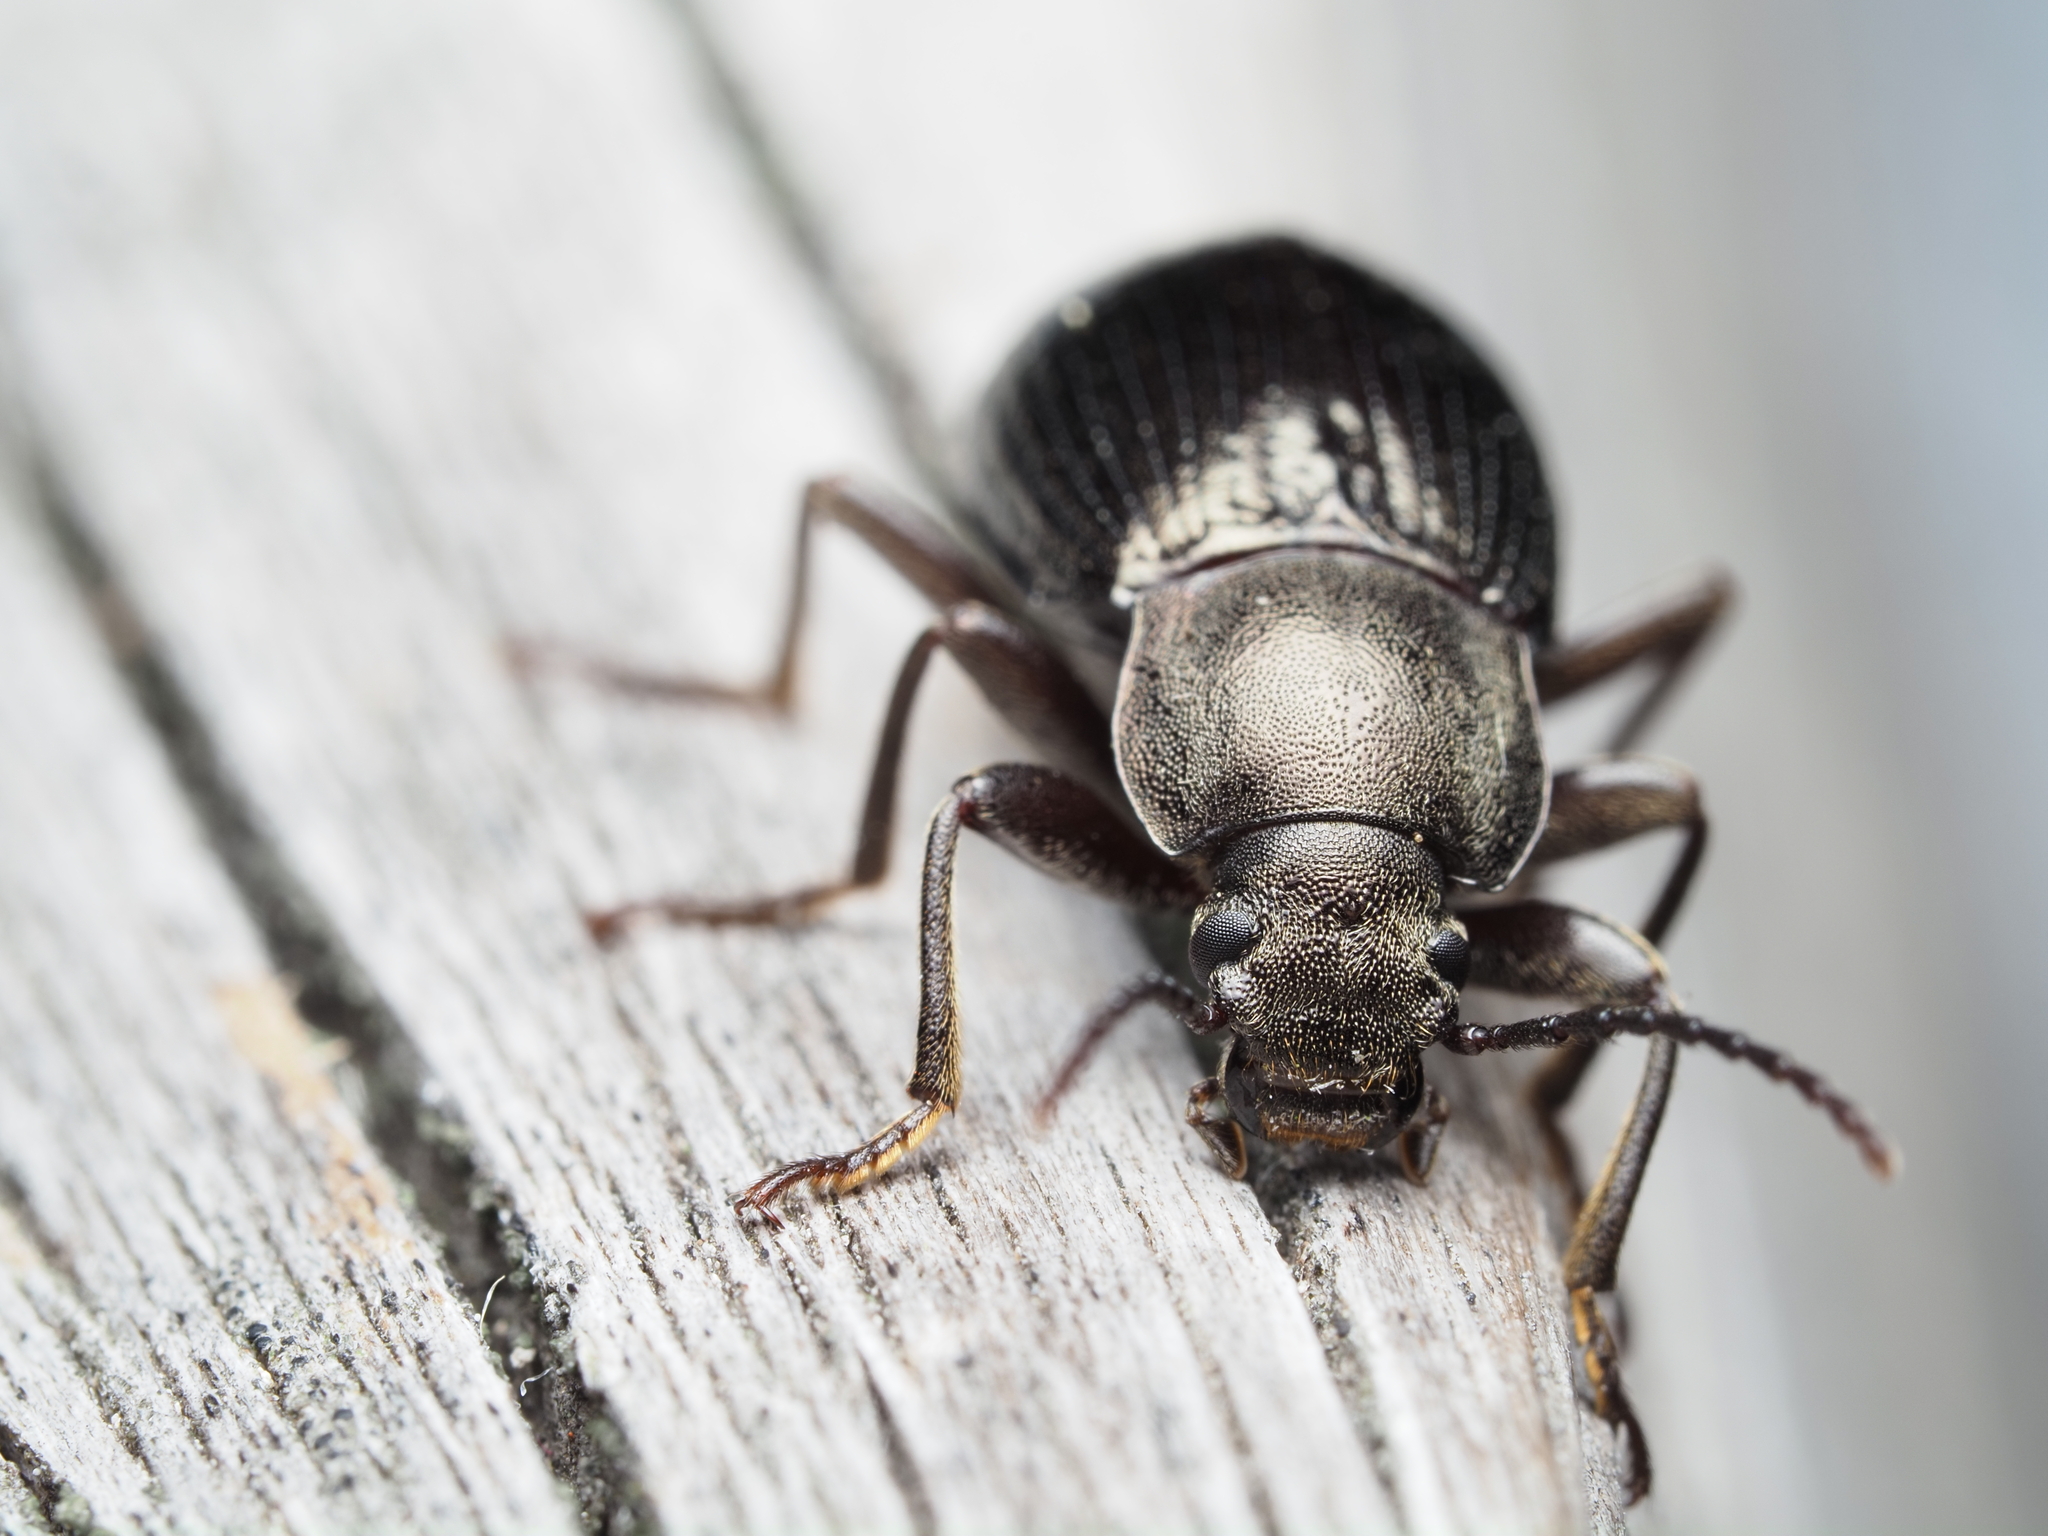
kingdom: Animalia
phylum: Arthropoda
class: Insecta
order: Coleoptera
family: Tenebrionidae
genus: Stenomax
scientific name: Stenomax aeneus
